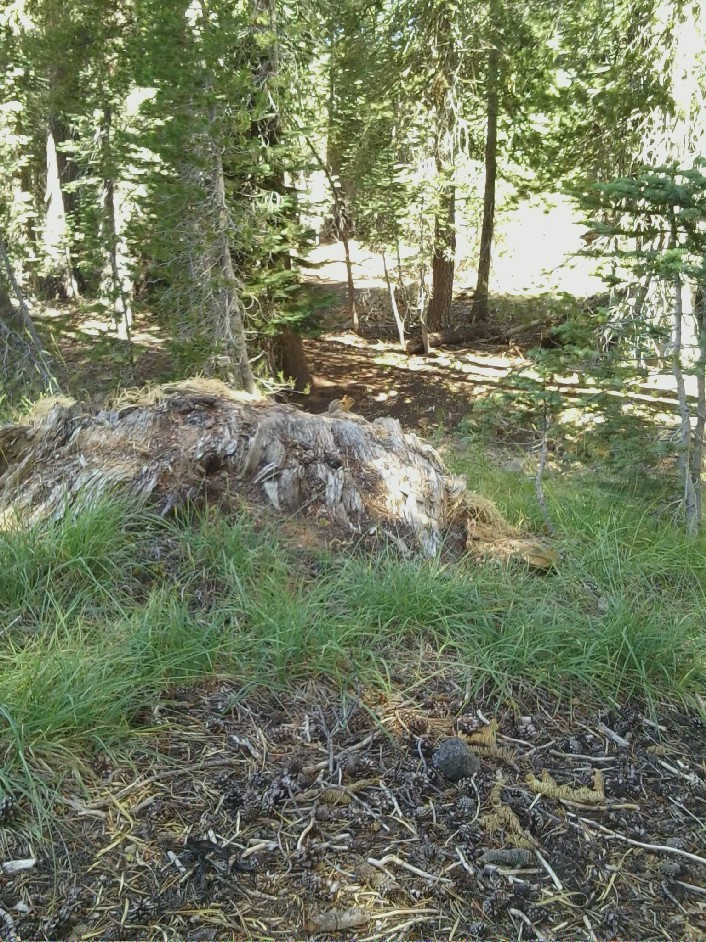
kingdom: Animalia
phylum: Chordata
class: Mammalia
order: Rodentia
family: Sciuridae
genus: Callospermophilus
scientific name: Callospermophilus lateralis
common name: Golden-mantled ground squirrel
